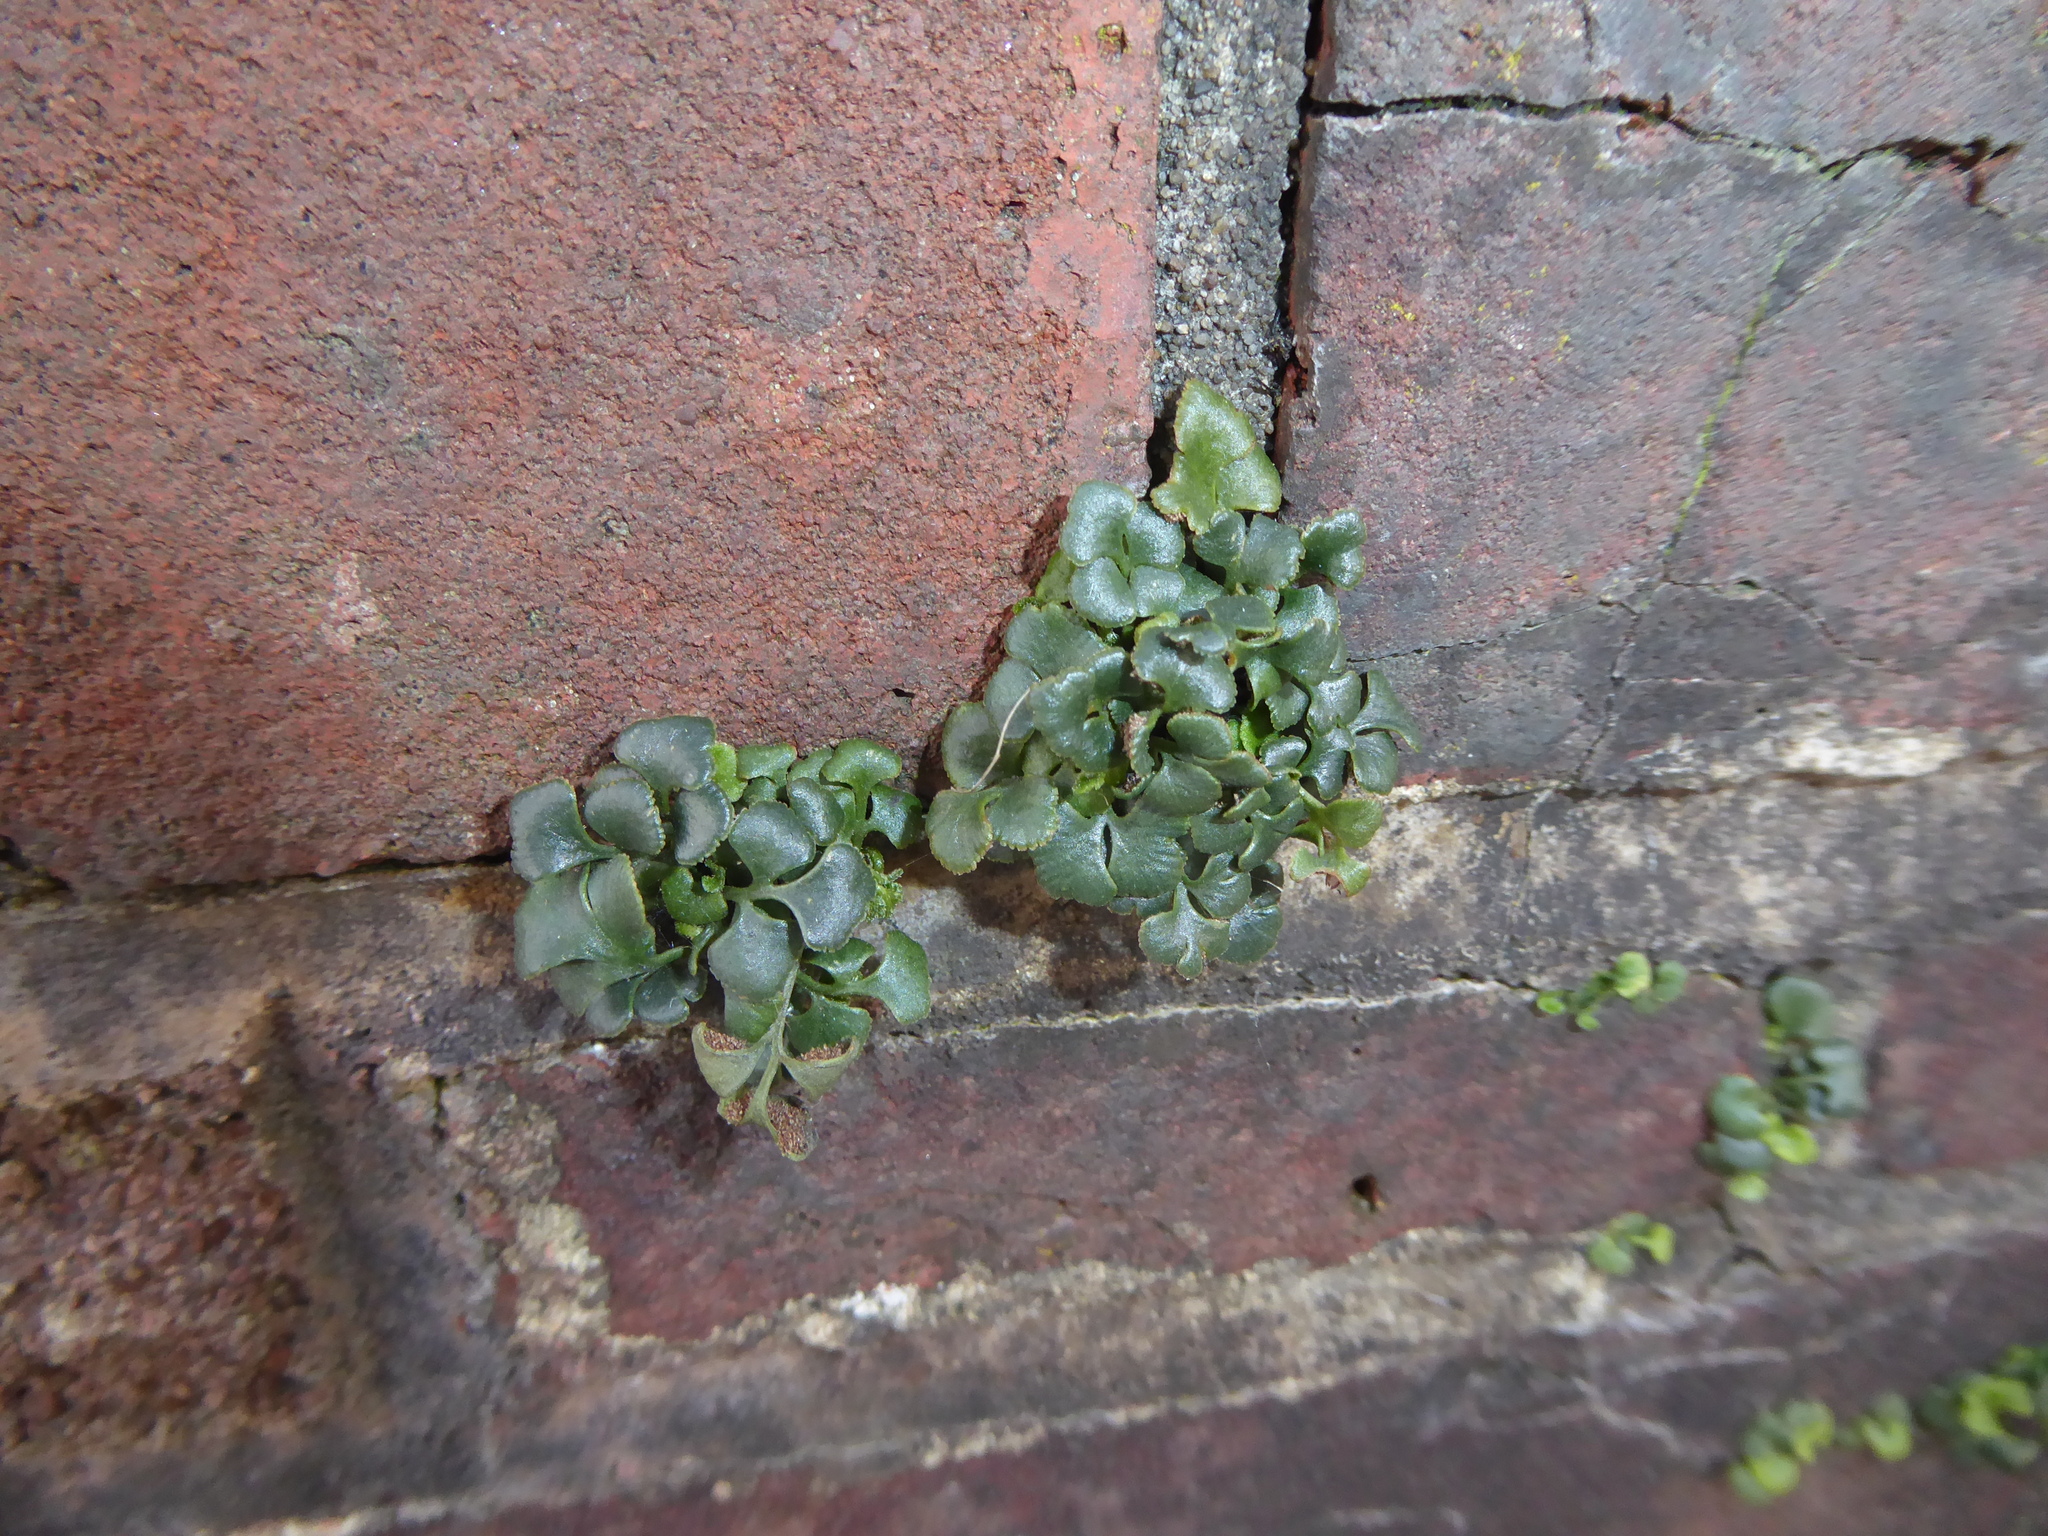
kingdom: Plantae
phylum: Tracheophyta
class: Polypodiopsida
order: Polypodiales
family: Aspleniaceae
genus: Asplenium
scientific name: Asplenium ruta-muraria
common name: Wall-rue
